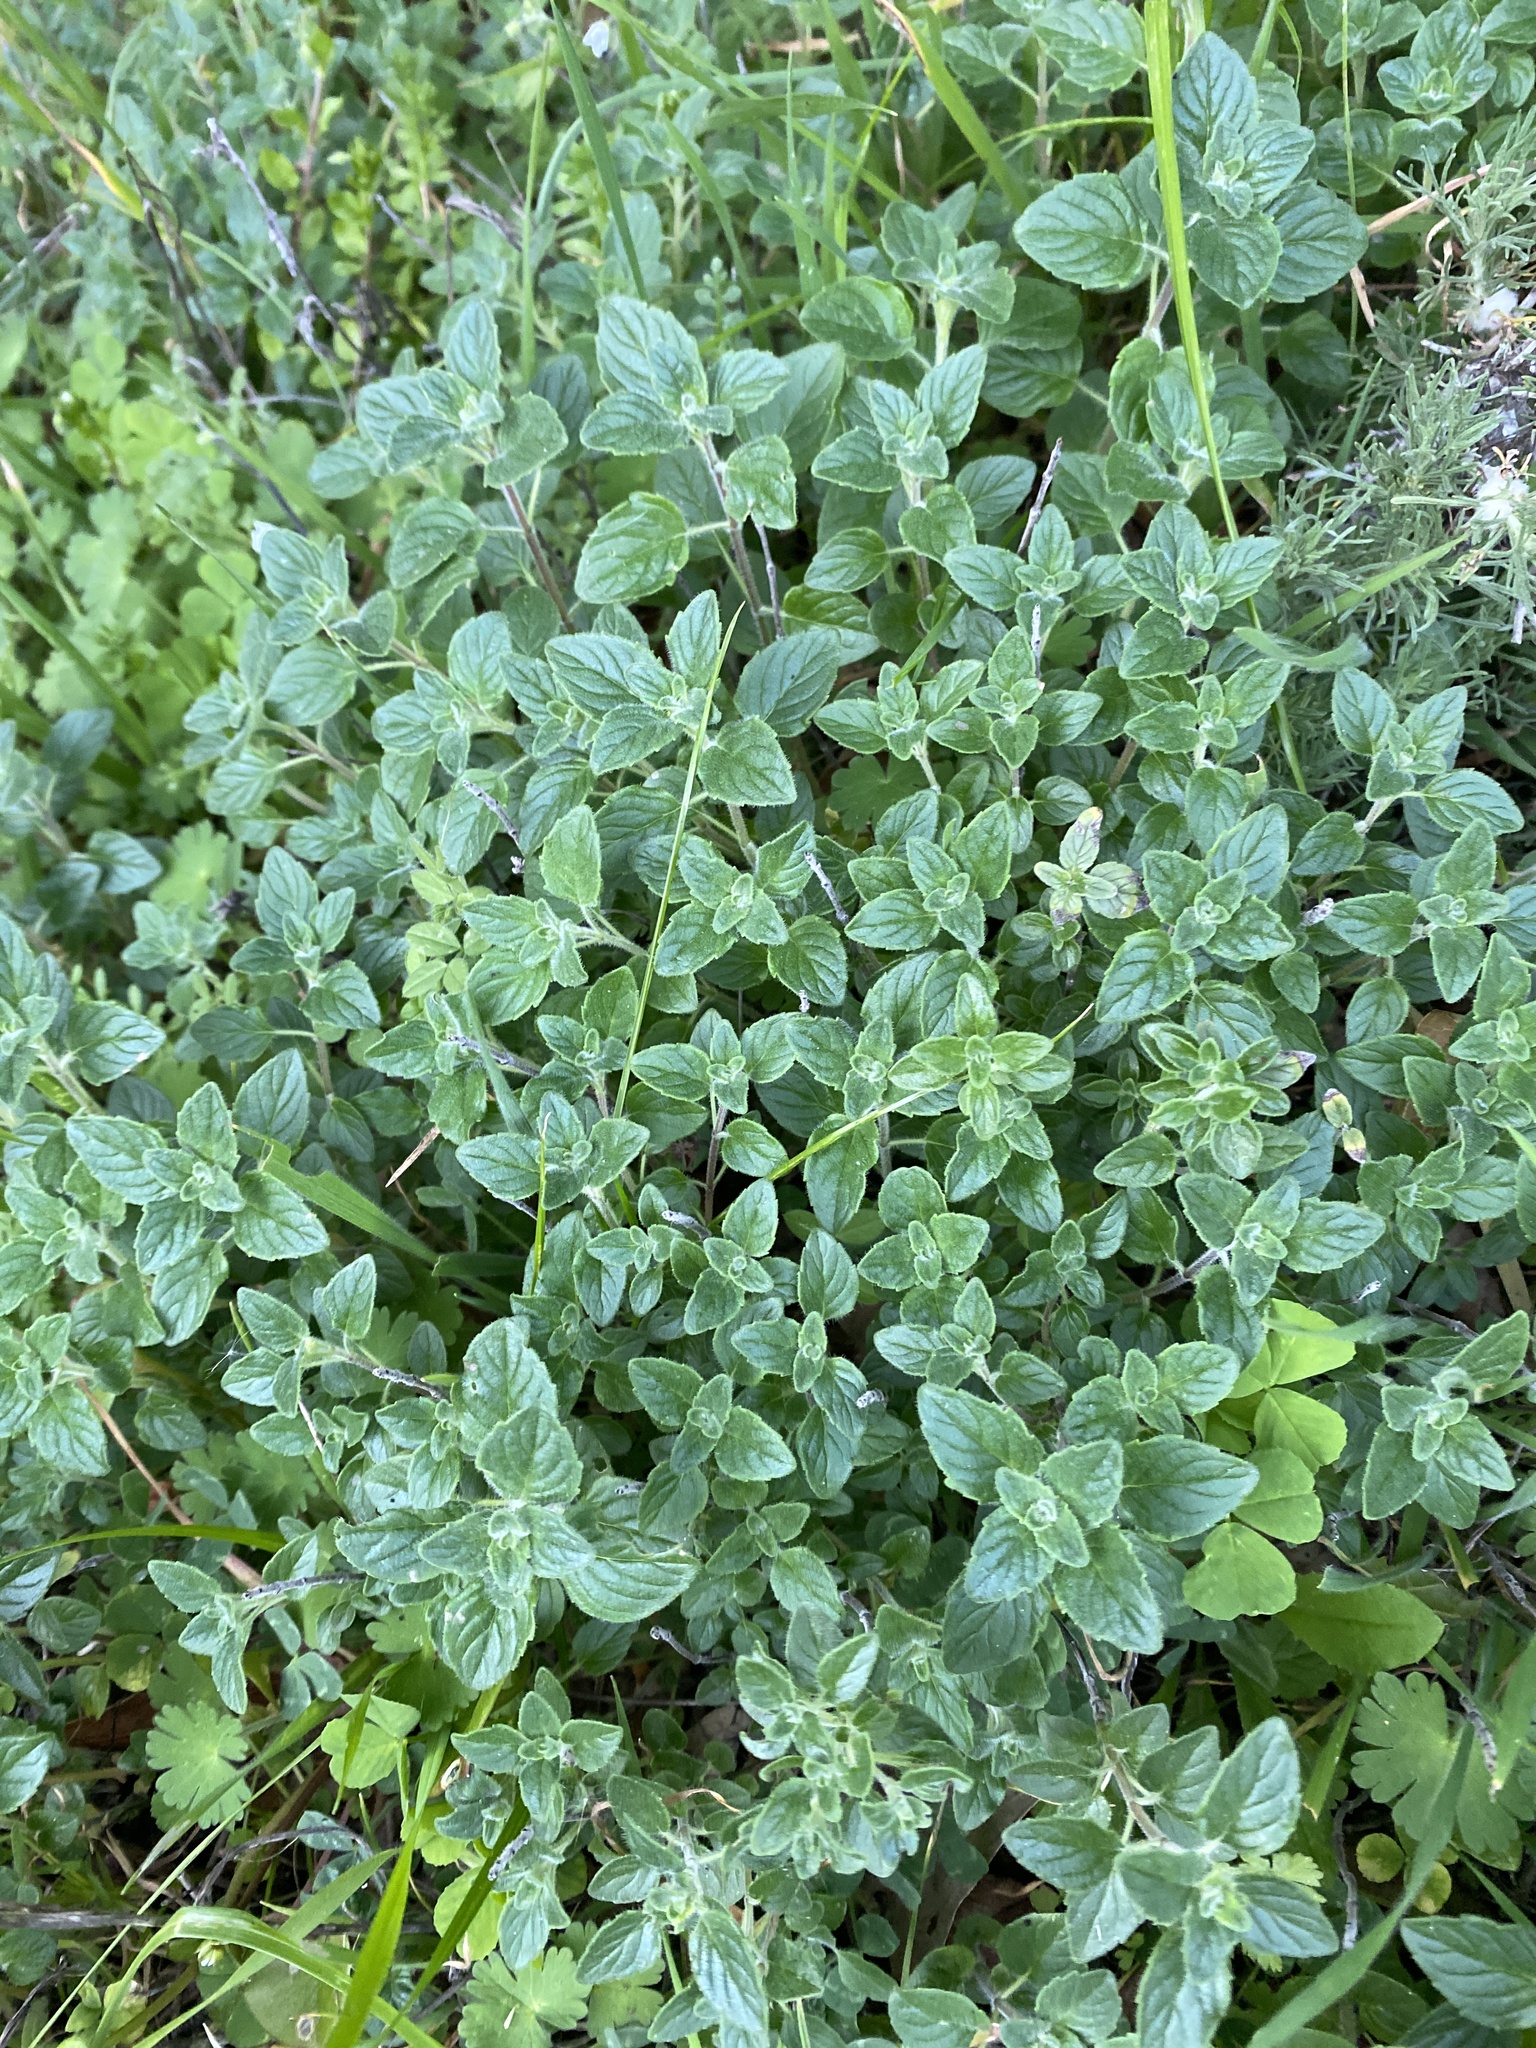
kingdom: Plantae
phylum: Tracheophyta
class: Magnoliopsida
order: Lamiales
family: Lamiaceae
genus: Monardella
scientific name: Monardella odoratissima
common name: Pacific monardella
